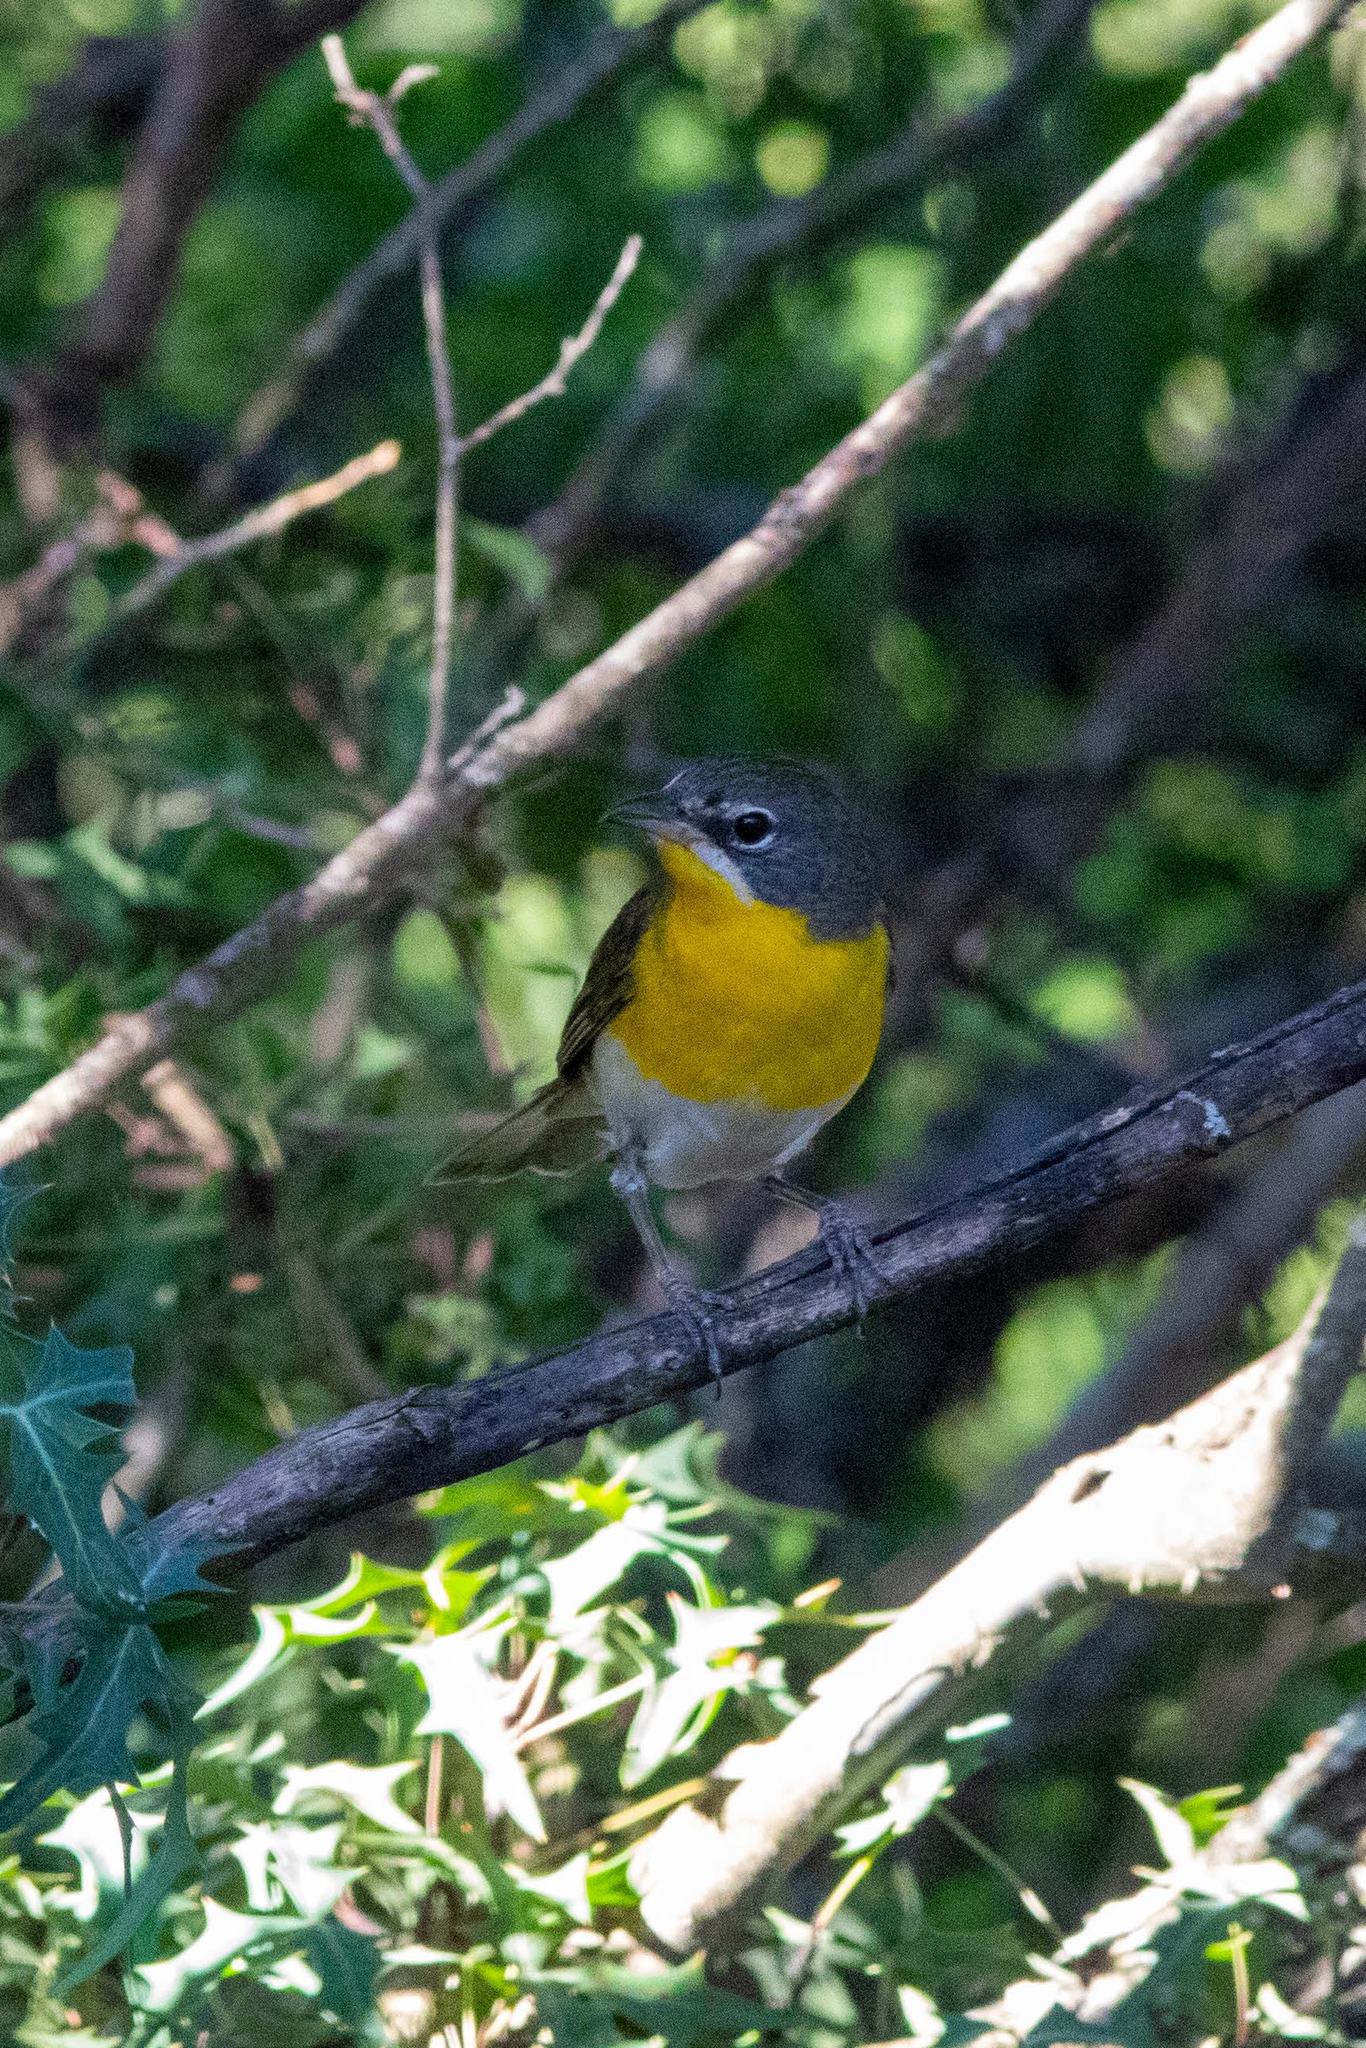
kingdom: Animalia
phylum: Chordata
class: Aves
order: Passeriformes
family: Parulidae
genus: Icteria
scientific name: Icteria virens
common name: Yellow-breasted chat
